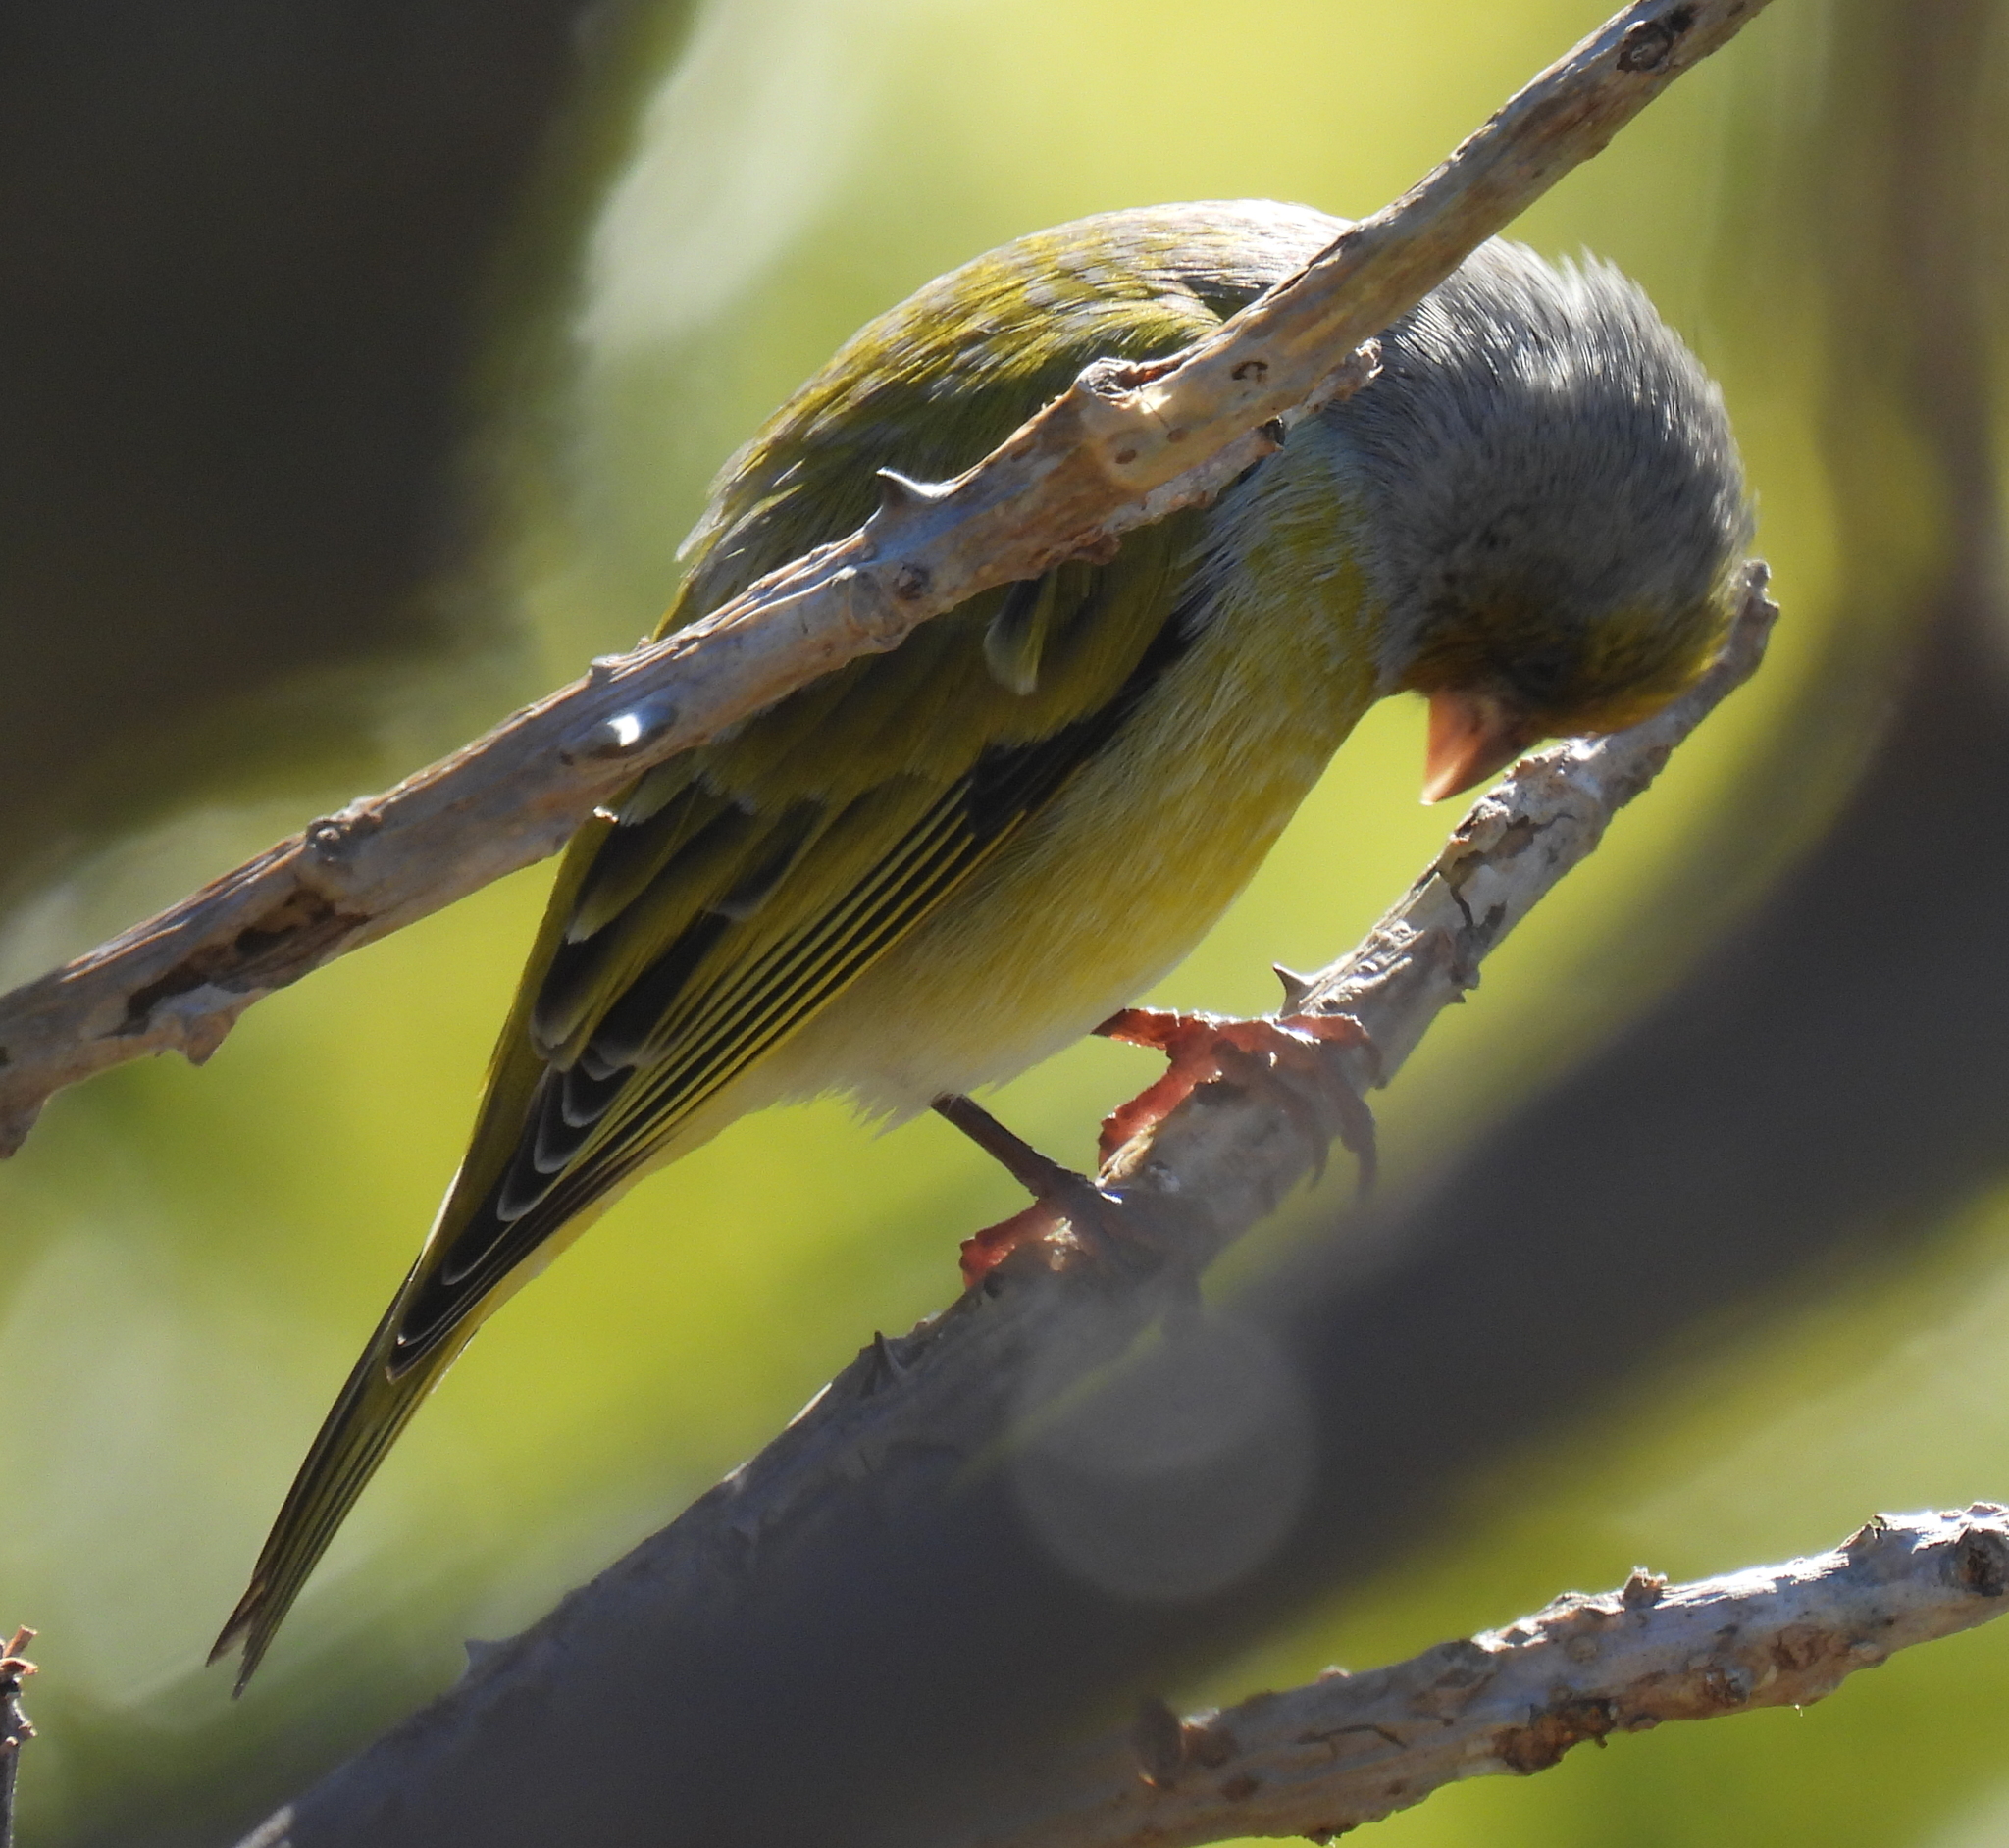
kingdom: Animalia
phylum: Chordata
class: Aves
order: Passeriformes
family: Fringillidae
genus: Serinus
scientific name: Serinus canicollis
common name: Cape canary
